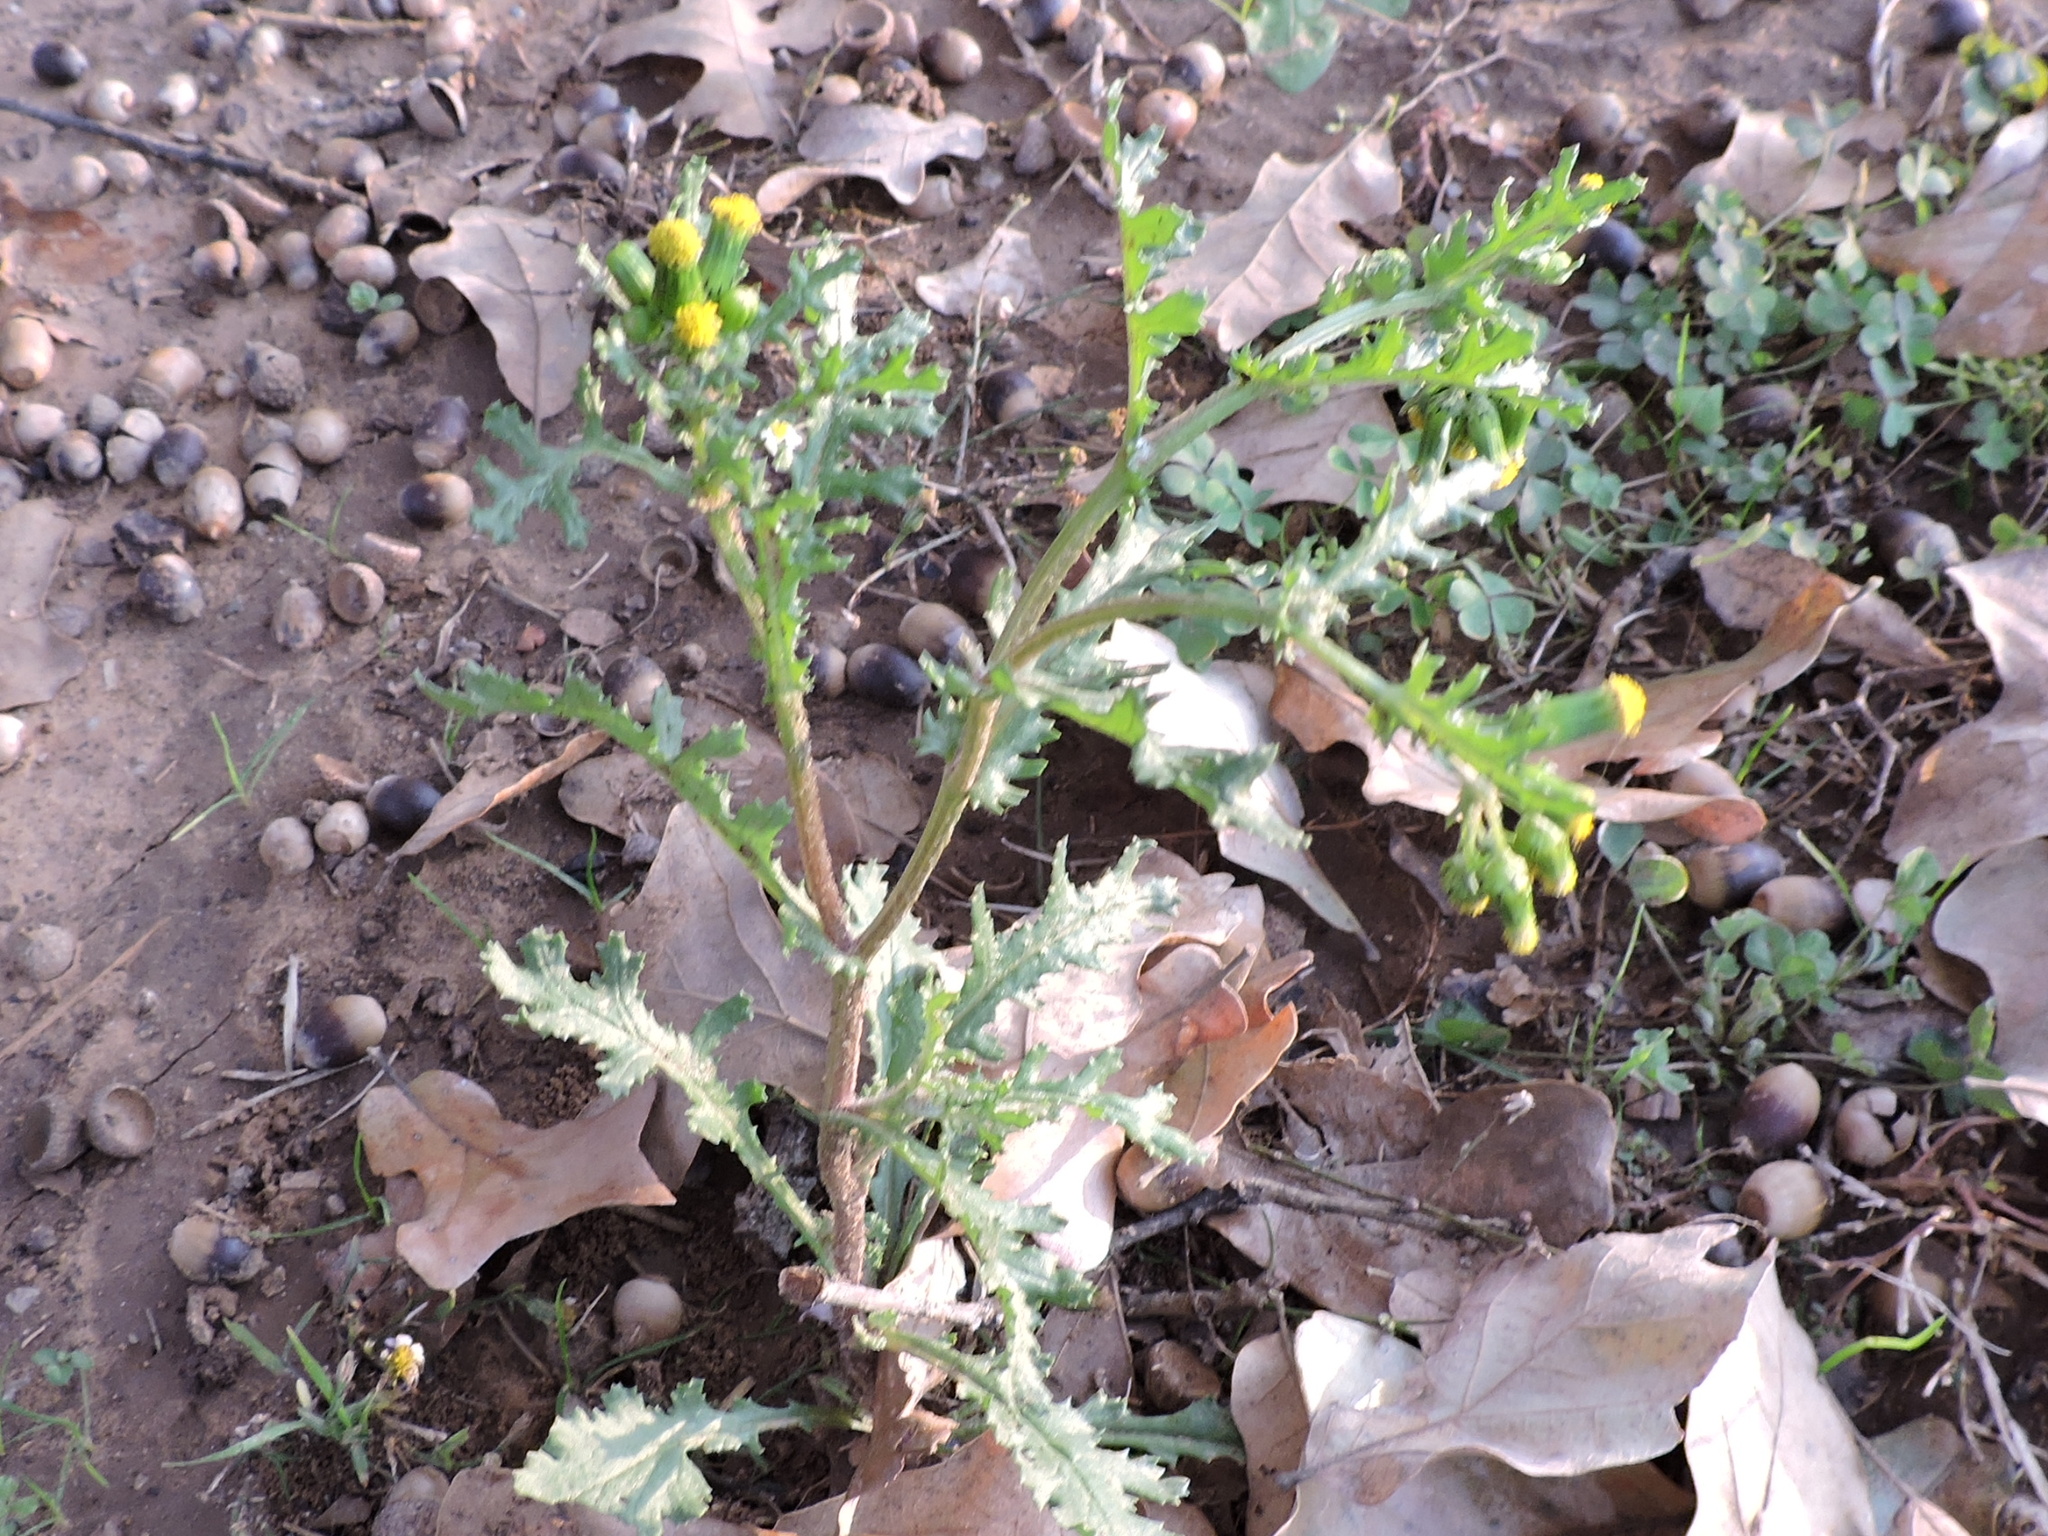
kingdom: Plantae
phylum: Tracheophyta
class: Magnoliopsida
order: Asterales
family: Asteraceae
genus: Senecio
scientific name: Senecio vulgaris
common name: Old-man-in-the-spring
